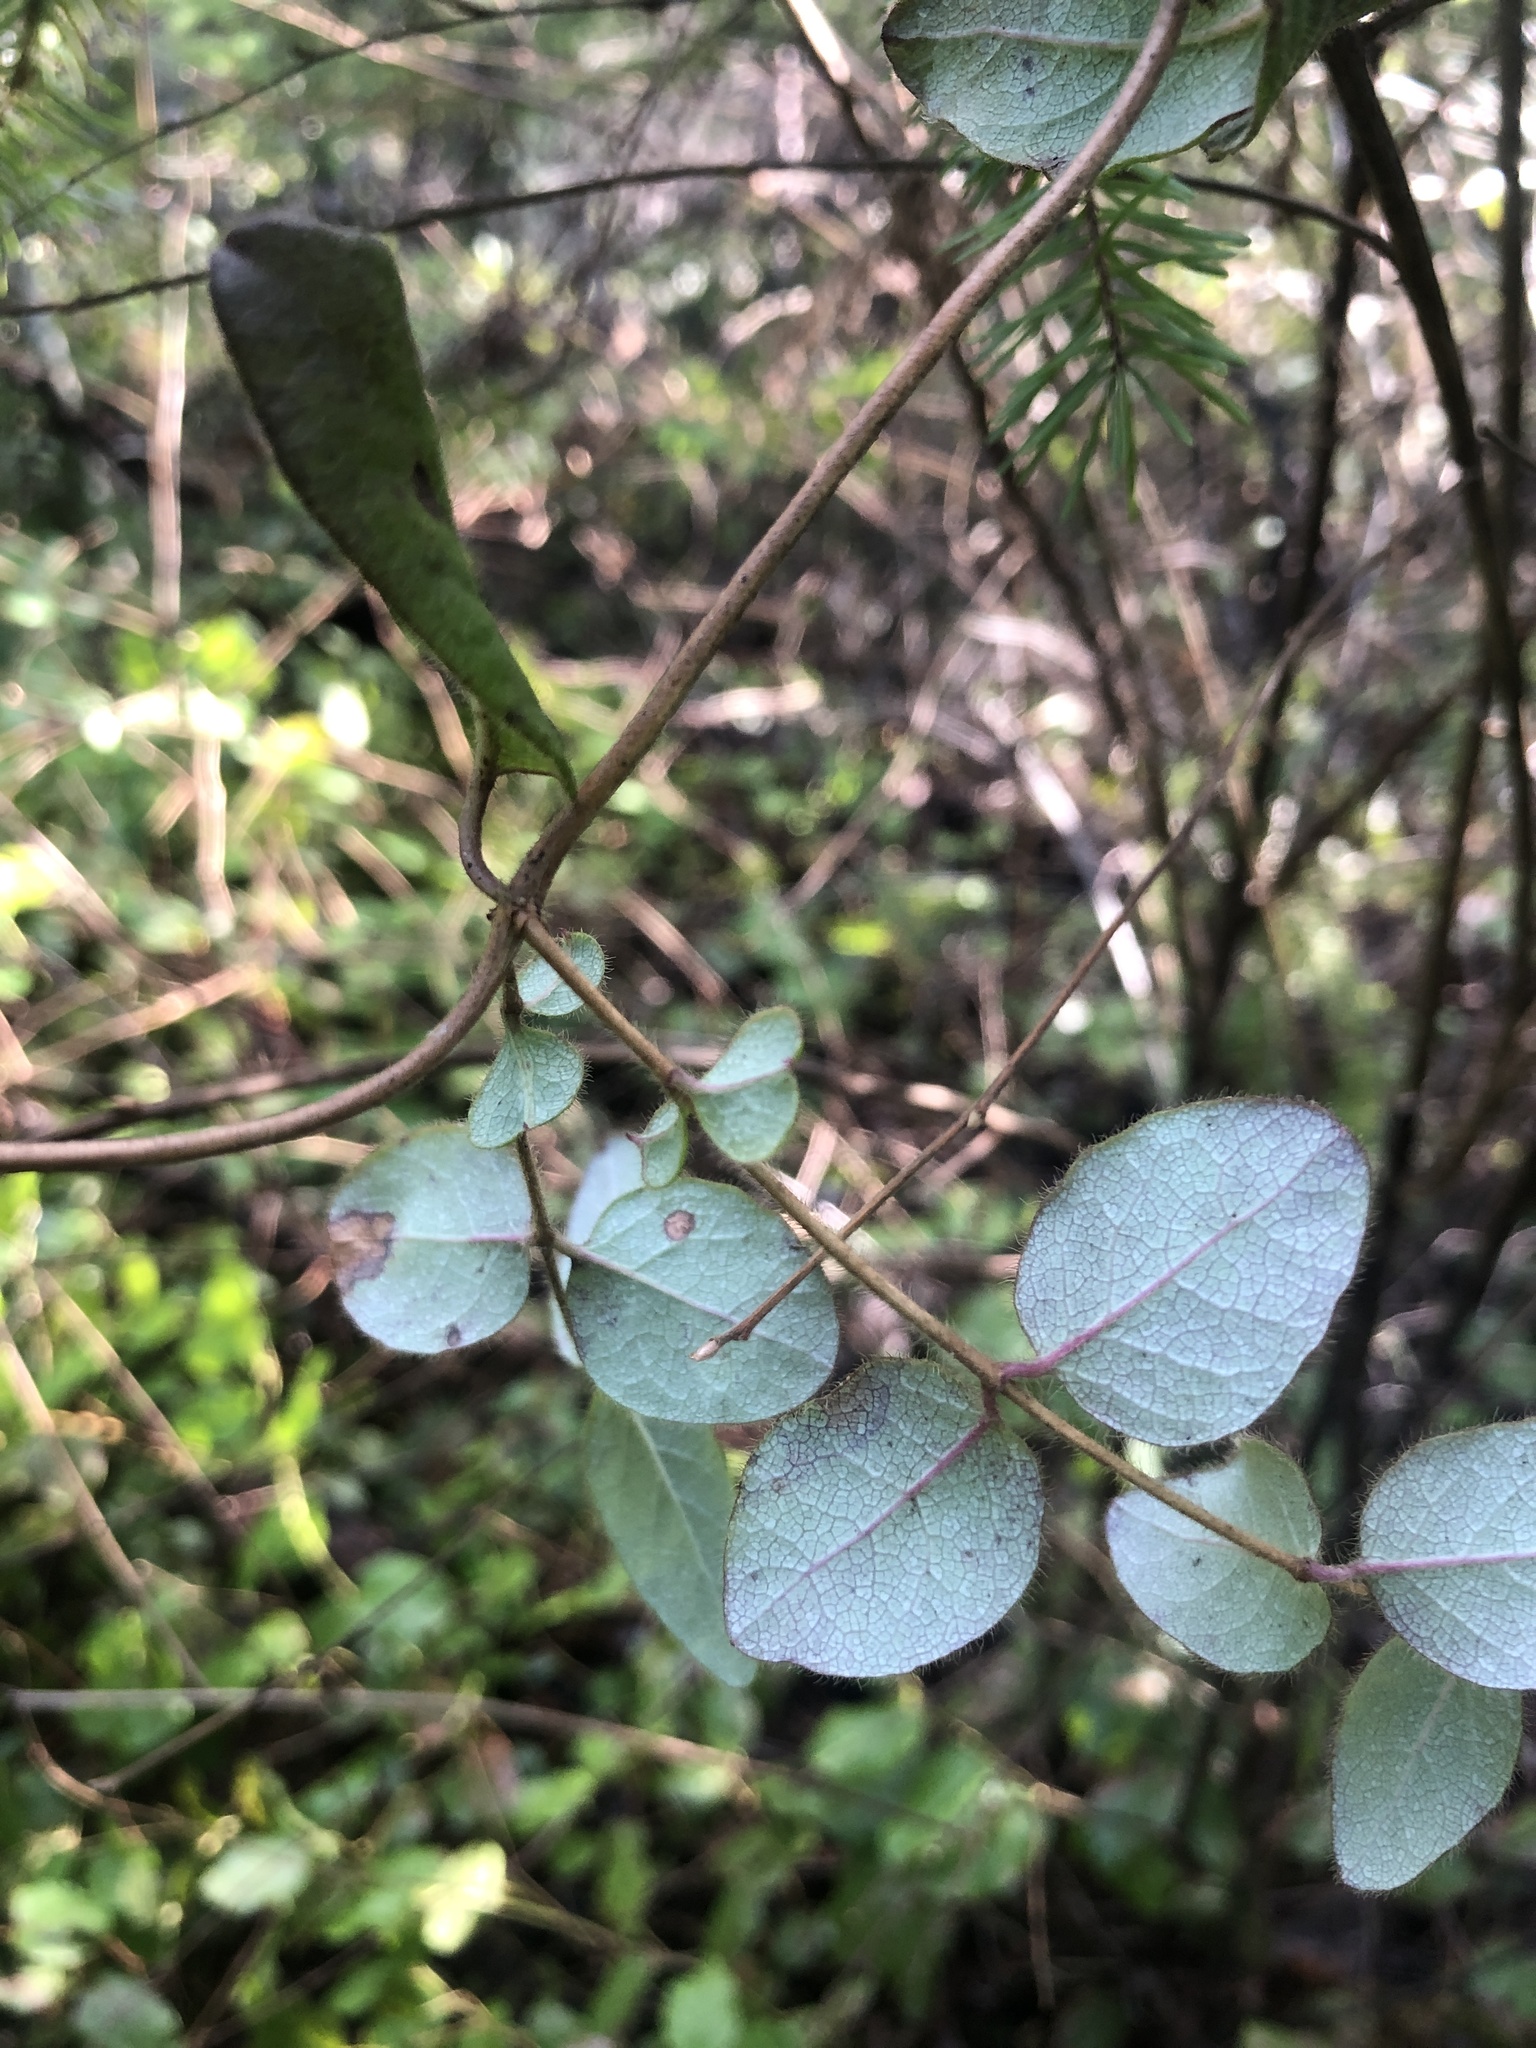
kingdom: Plantae
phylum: Tracheophyta
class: Magnoliopsida
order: Dipsacales
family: Caprifoliaceae
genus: Lonicera
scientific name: Lonicera hispidula
